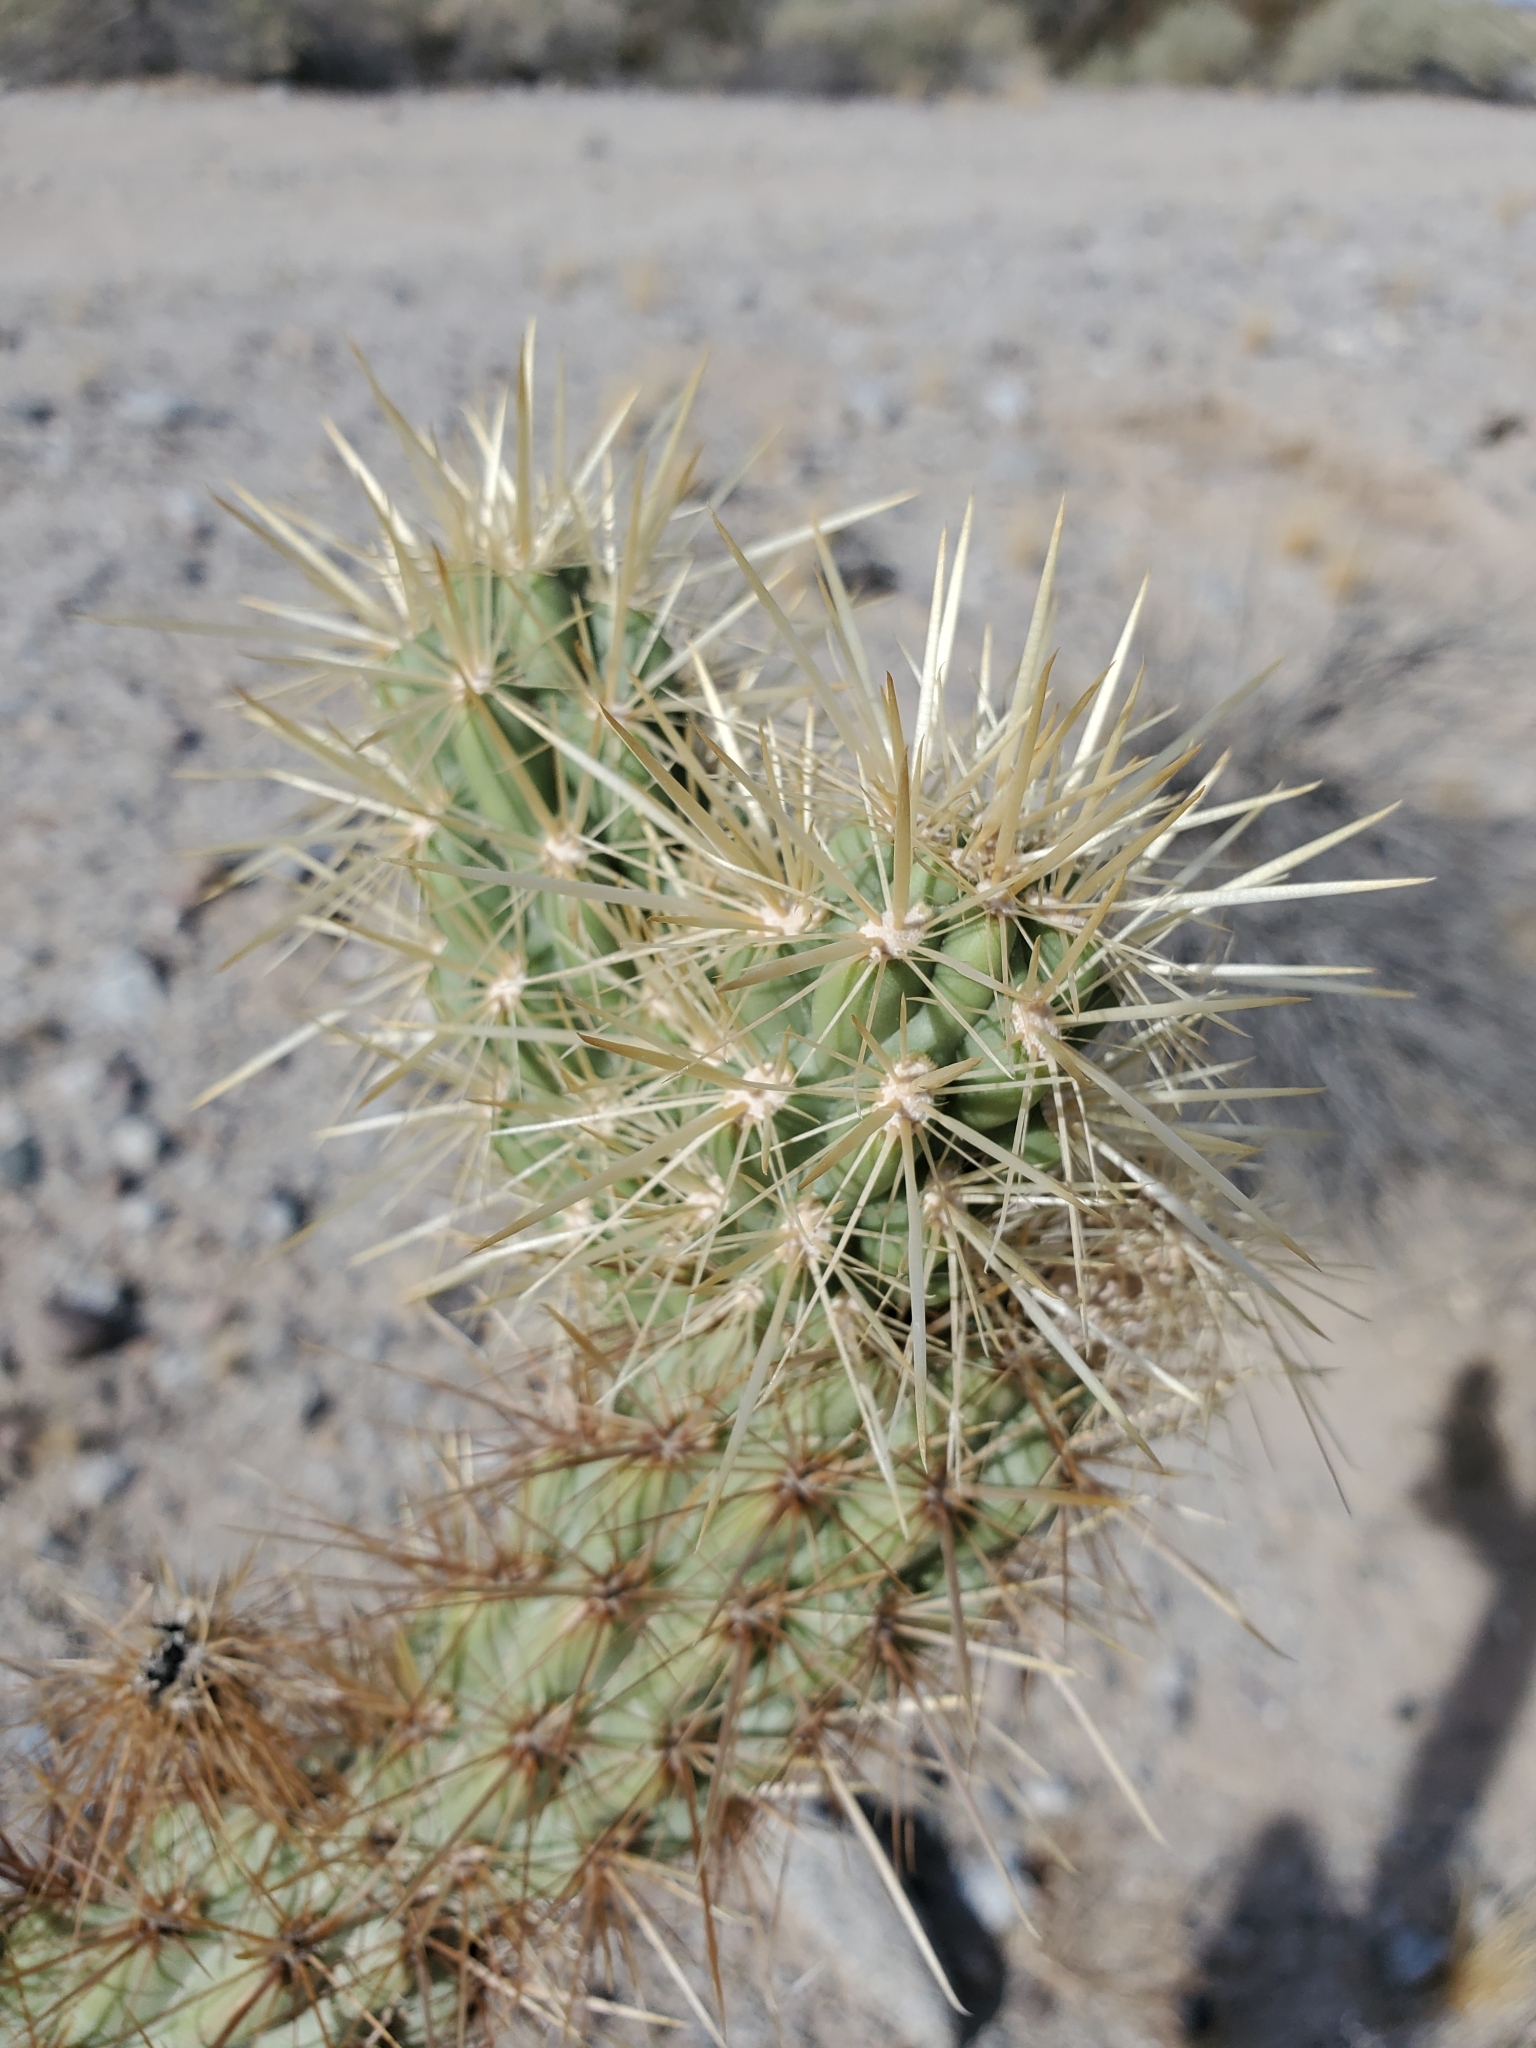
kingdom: Plantae
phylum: Tracheophyta
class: Magnoliopsida
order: Caryophyllales
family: Cactaceae
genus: Cylindropuntia
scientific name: Cylindropuntia wolfii
